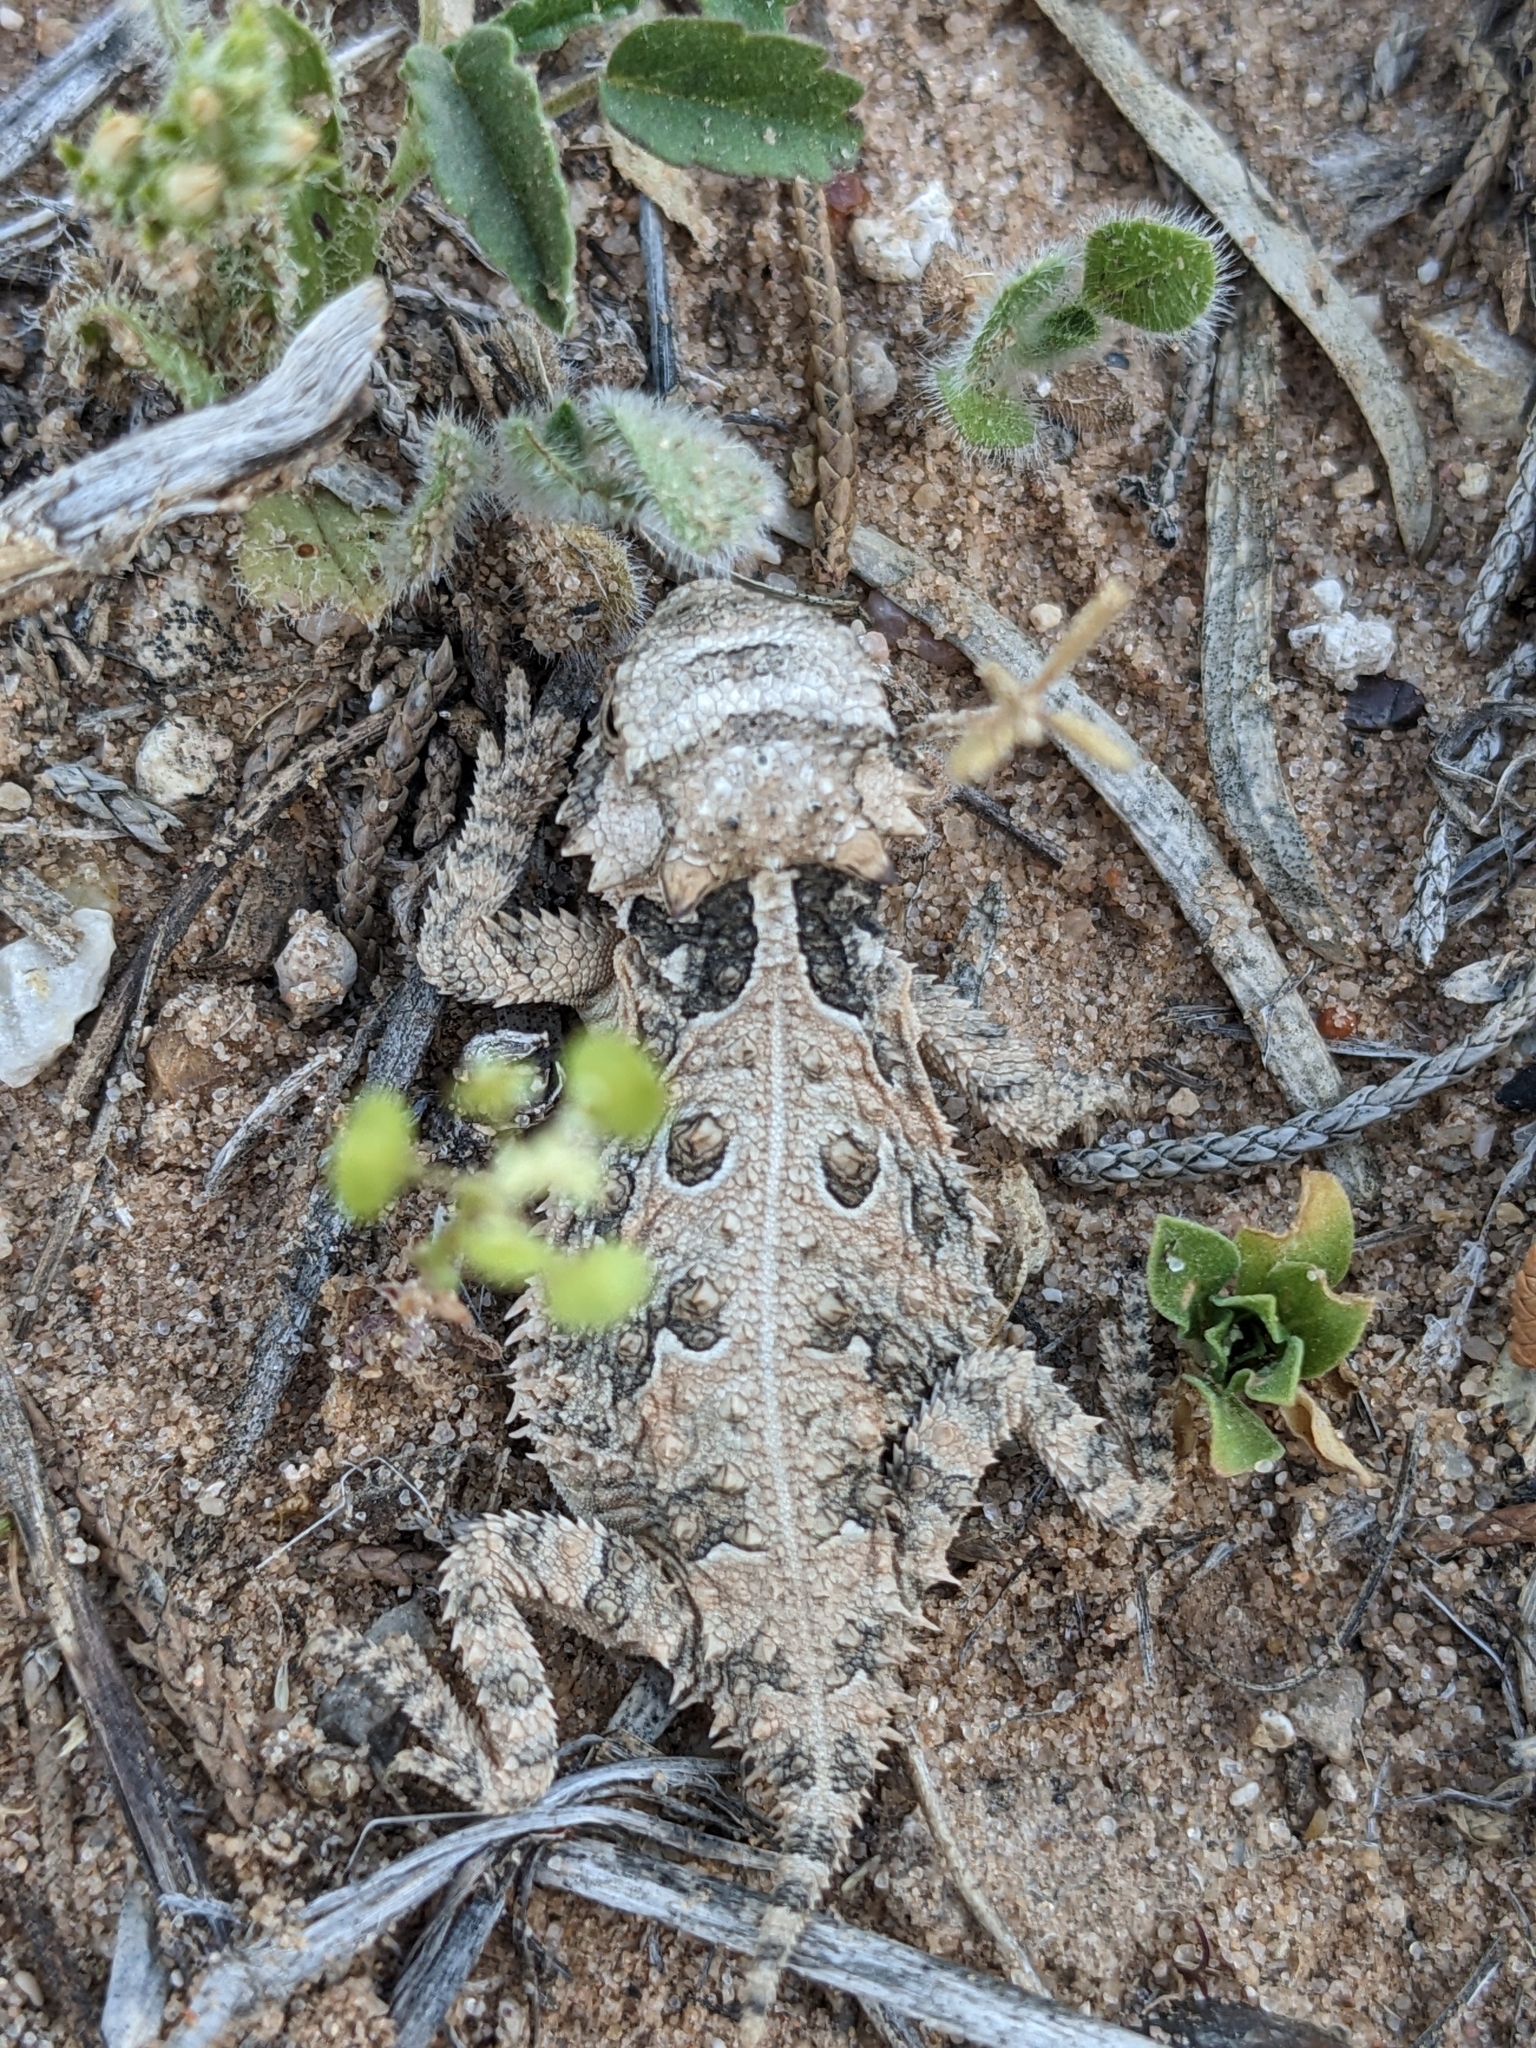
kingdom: Animalia
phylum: Chordata
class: Squamata
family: Phrynosomatidae
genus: Phrynosoma
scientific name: Phrynosoma cornutum
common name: Texas horned lizard
